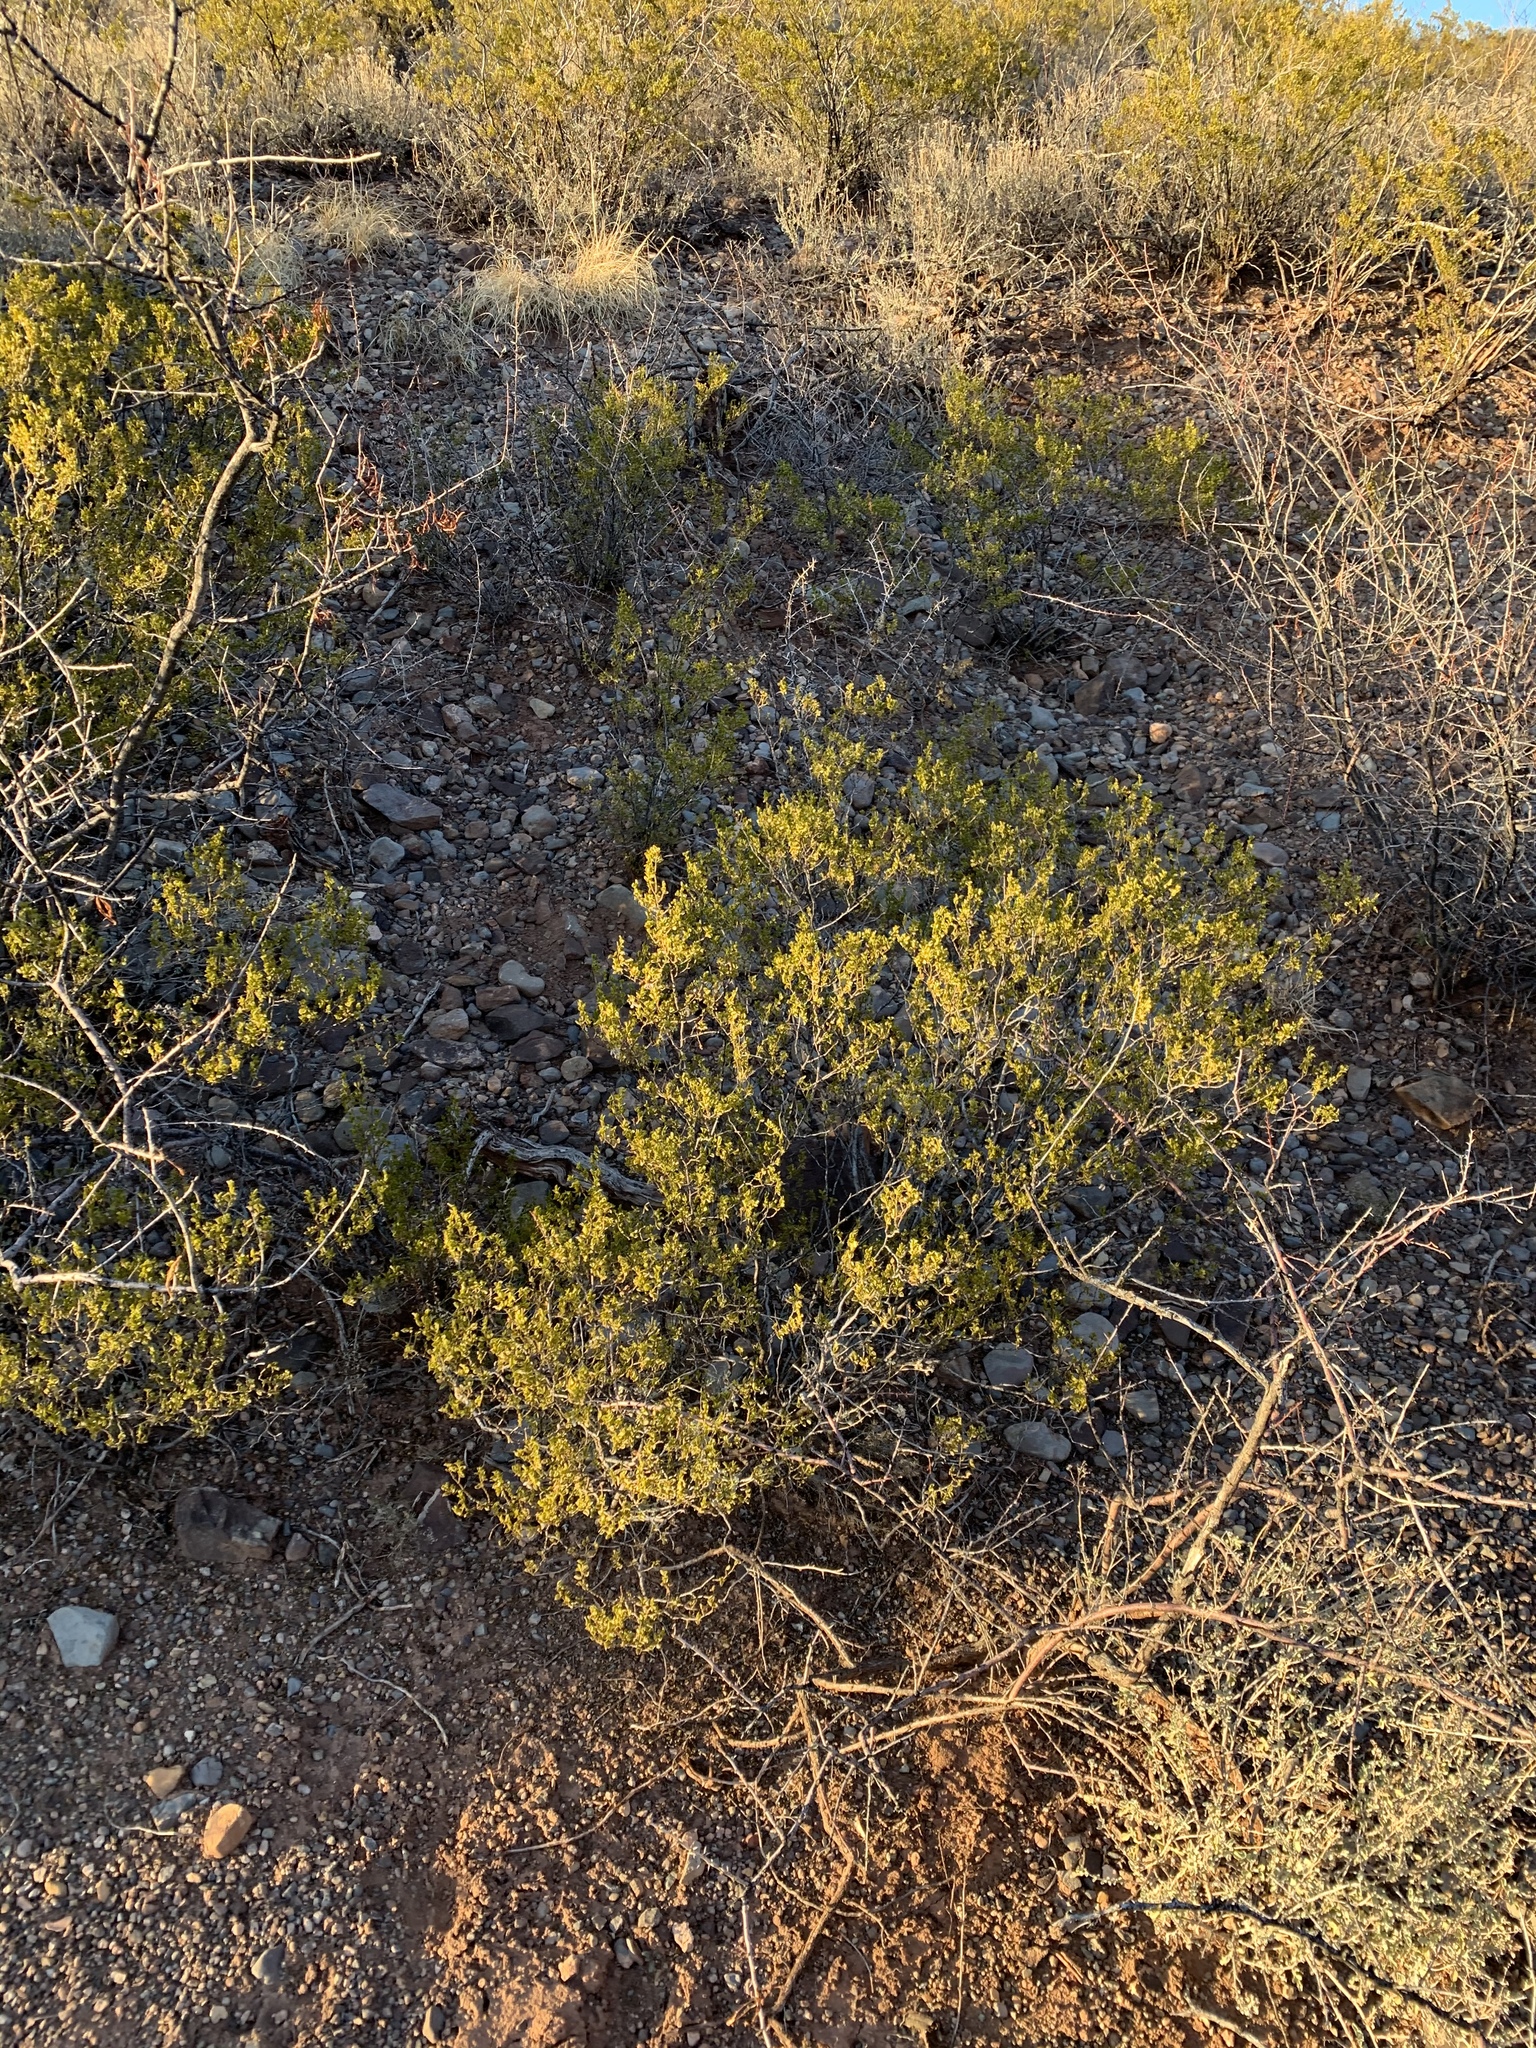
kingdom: Plantae
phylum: Tracheophyta
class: Magnoliopsida
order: Zygophyllales
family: Zygophyllaceae
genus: Larrea
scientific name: Larrea tridentata
